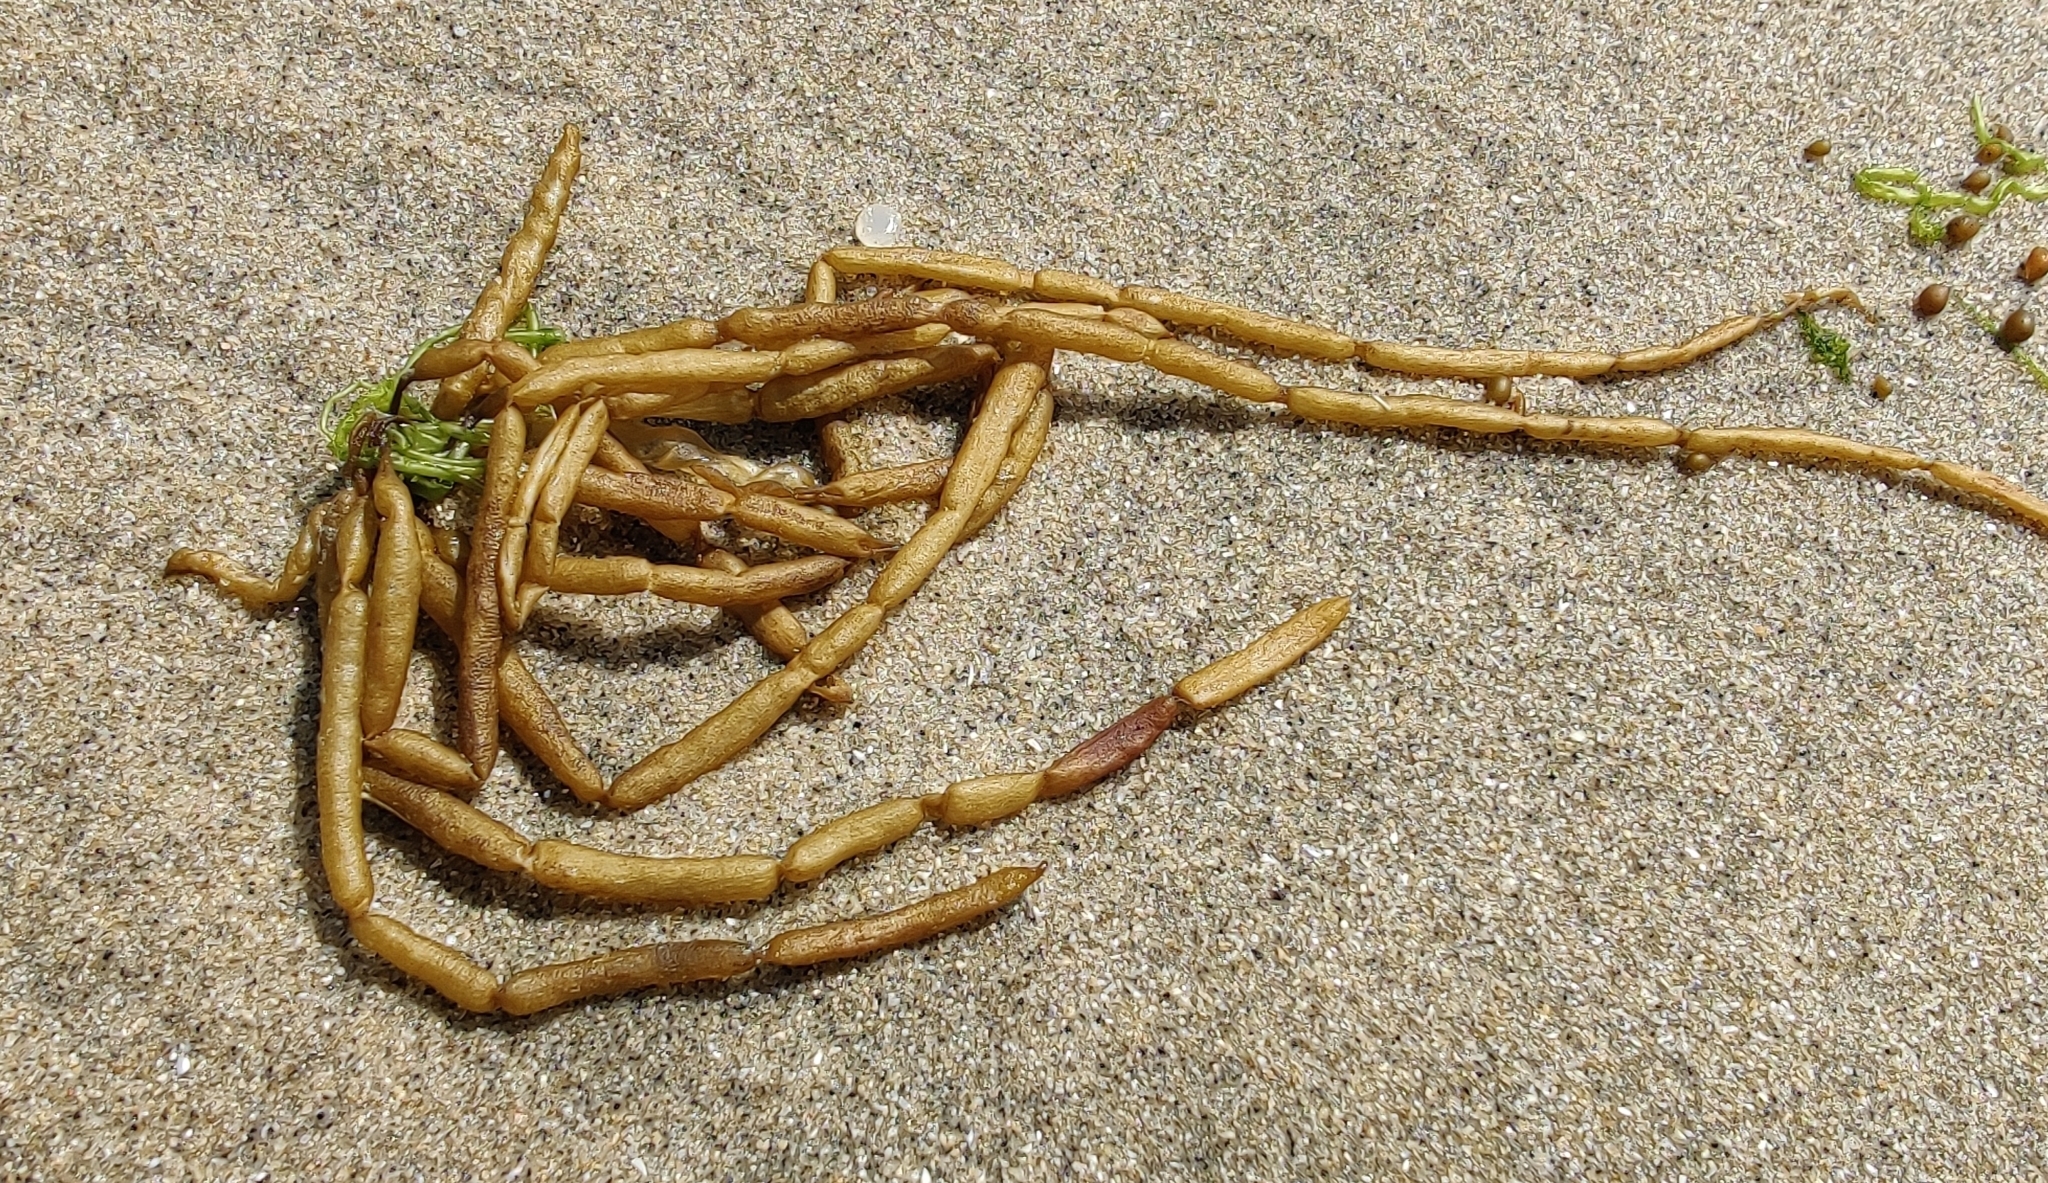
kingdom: Chromista
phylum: Ochrophyta
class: Phaeophyceae
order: Scytosiphonales
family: Scytosiphonaceae
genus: Scytosiphon
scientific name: Scytosiphon lomentaria
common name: Beanweed
